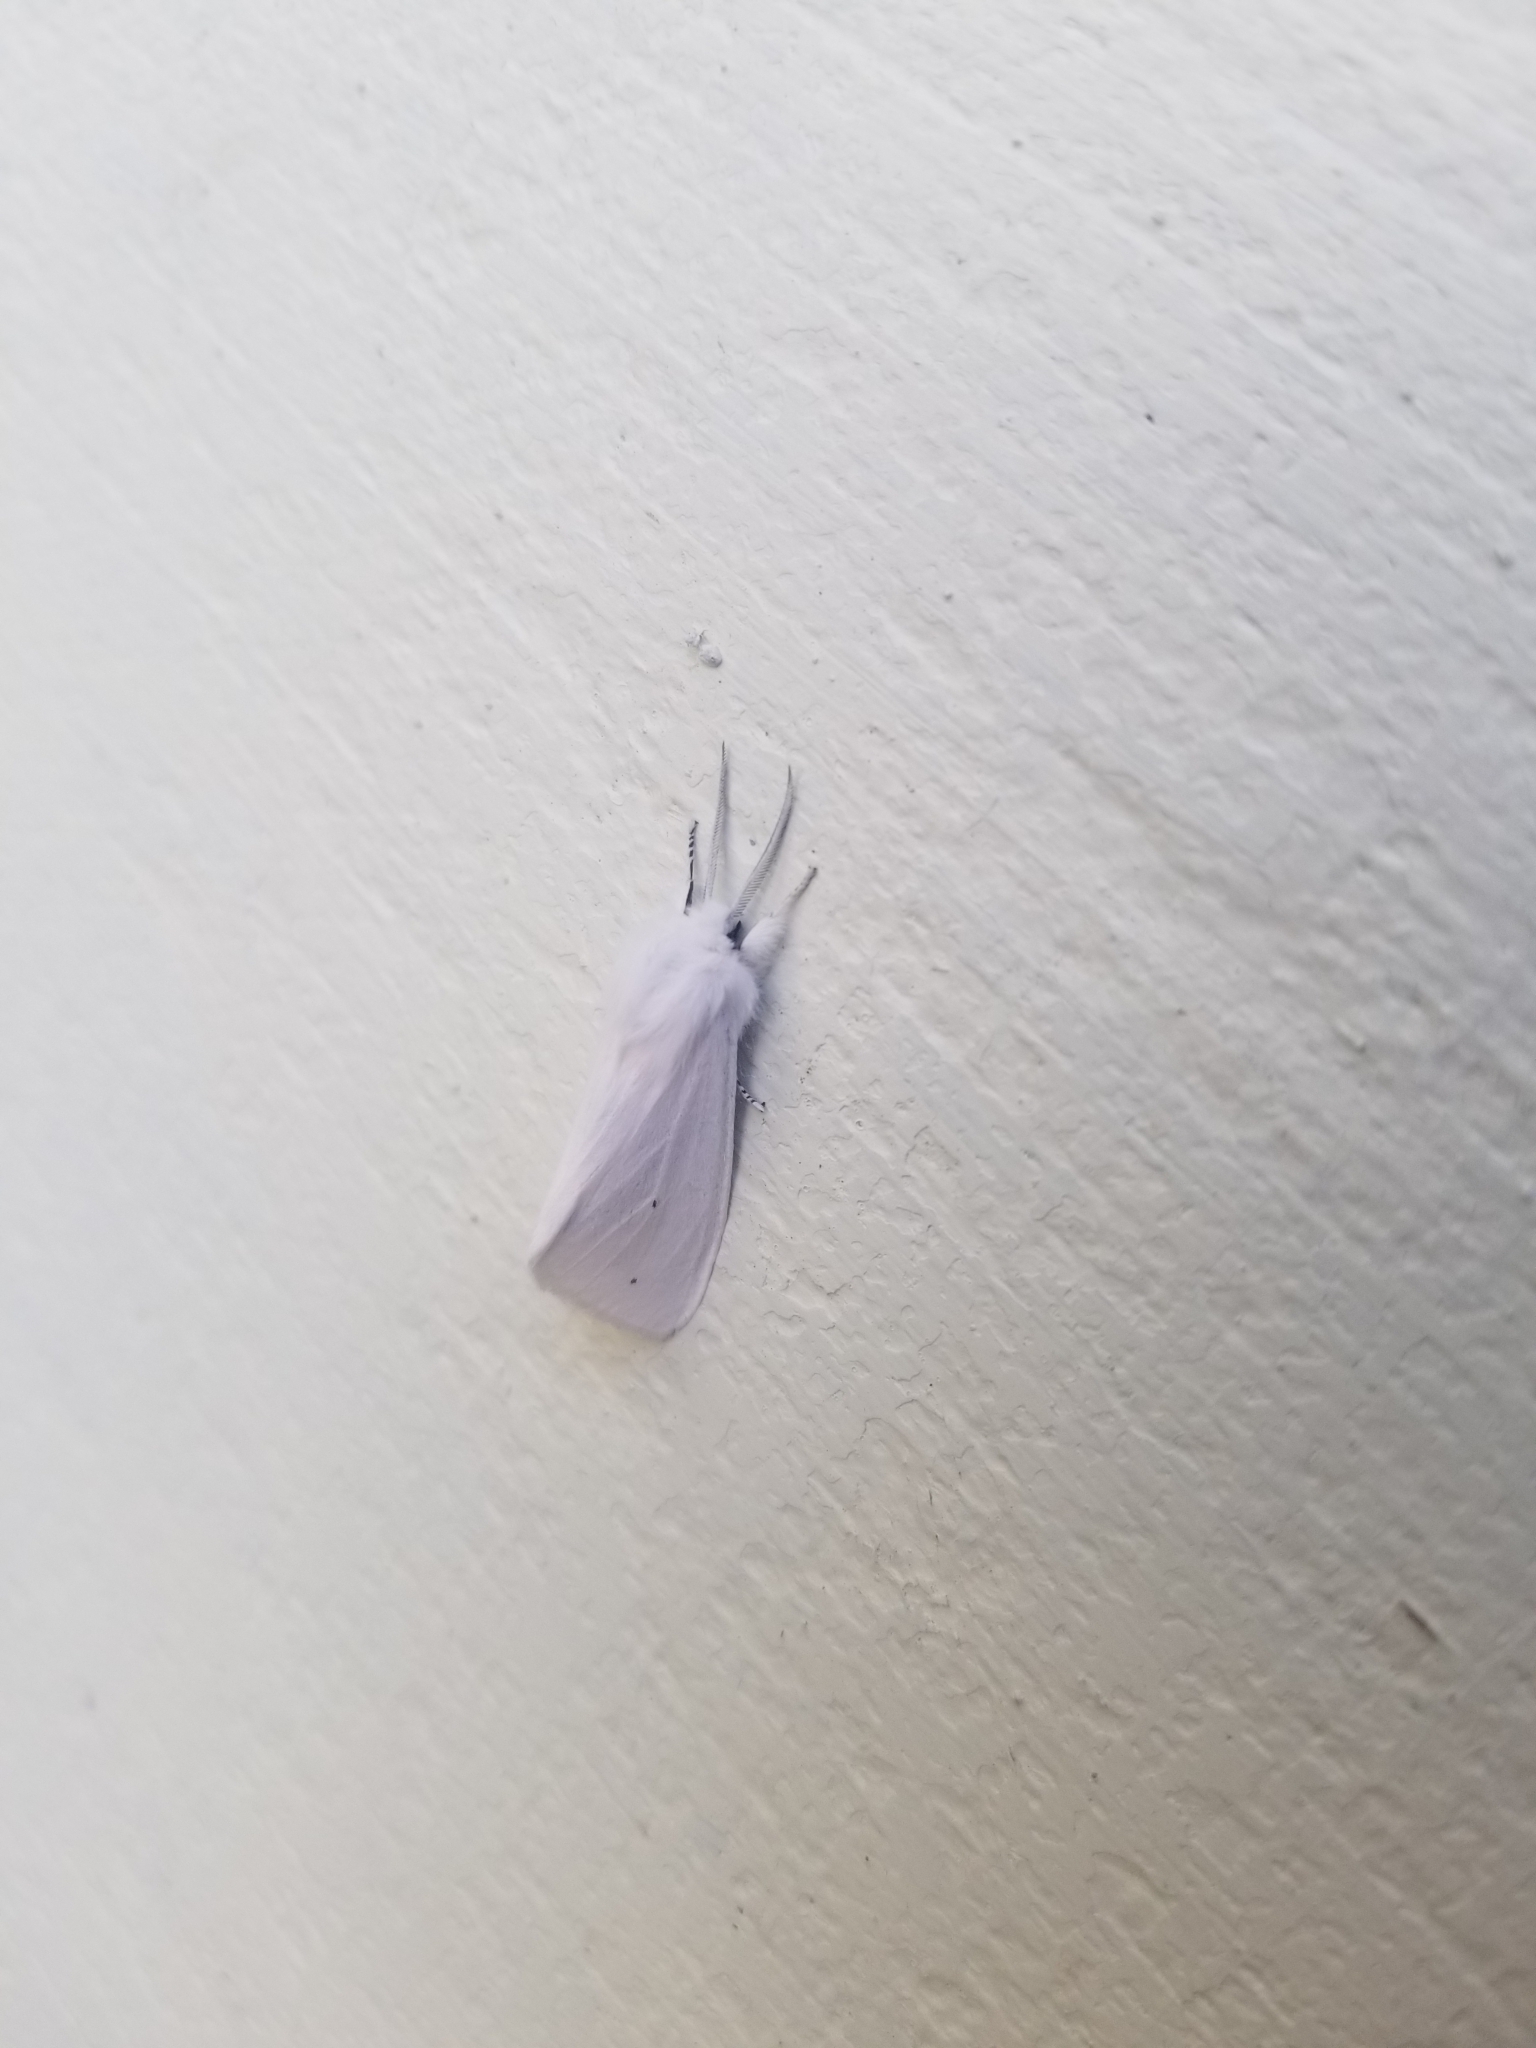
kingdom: Animalia
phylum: Arthropoda
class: Insecta
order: Lepidoptera
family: Erebidae
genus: Spilosoma
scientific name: Spilosoma virginica
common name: Virginia tiger moth
